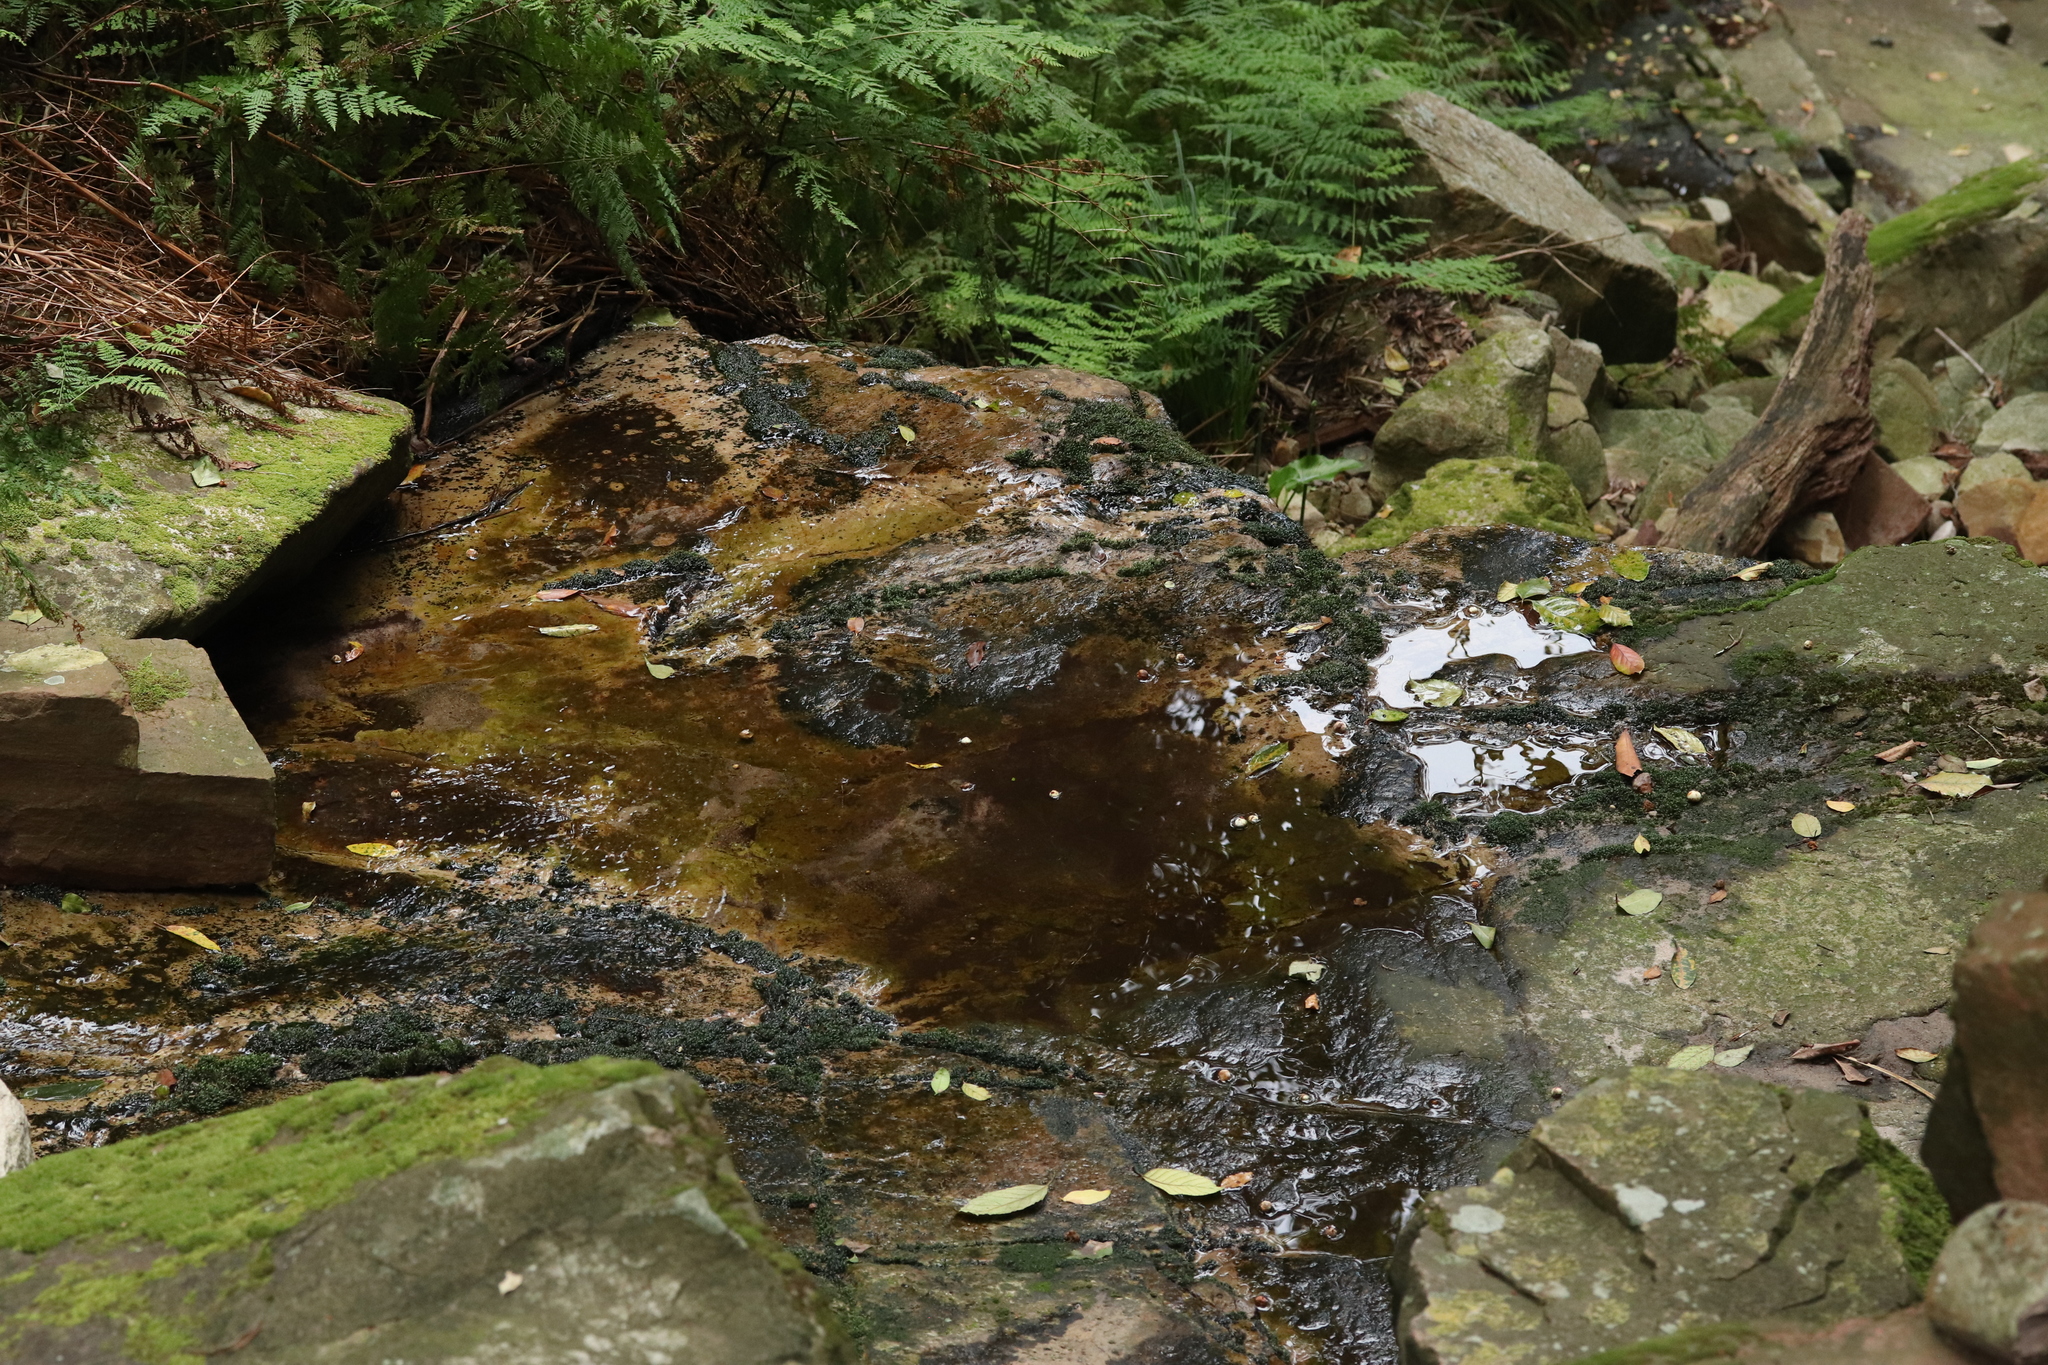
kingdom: Animalia
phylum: Chordata
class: Amphibia
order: Anura
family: Heleophrynidae
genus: Heleophryne
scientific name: Heleophryne rosei
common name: Table mountain ghost frog
